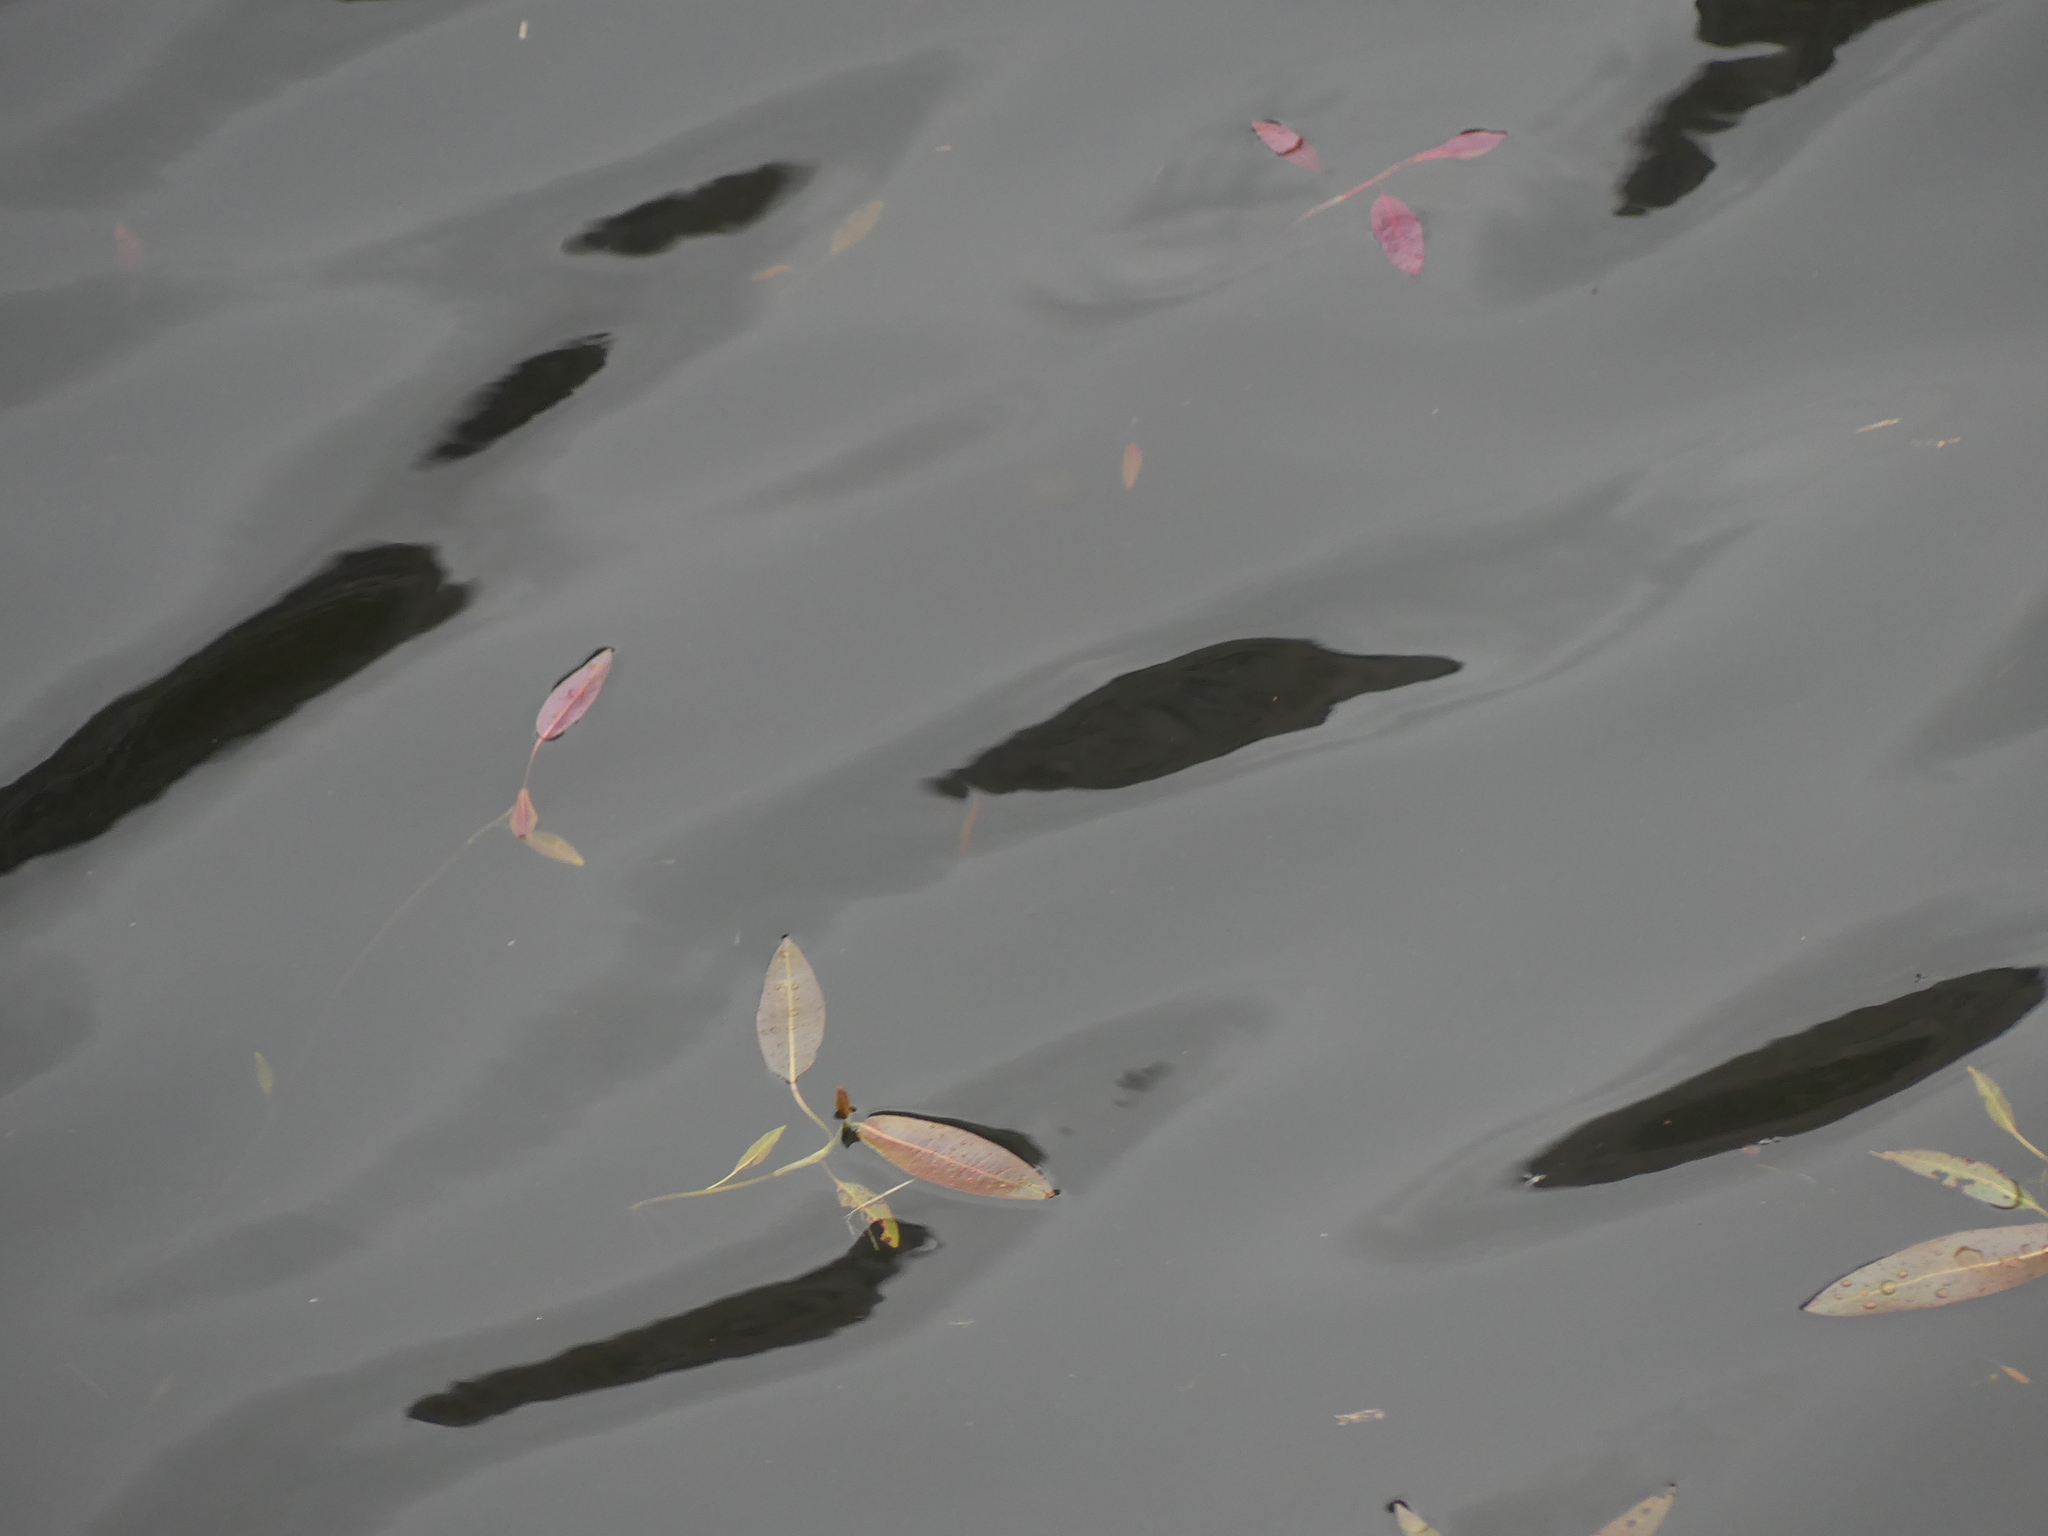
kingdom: Plantae
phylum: Tracheophyta
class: Magnoliopsida
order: Caryophyllales
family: Polygonaceae
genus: Persicaria
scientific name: Persicaria amphibia
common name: Amphibious bistort
